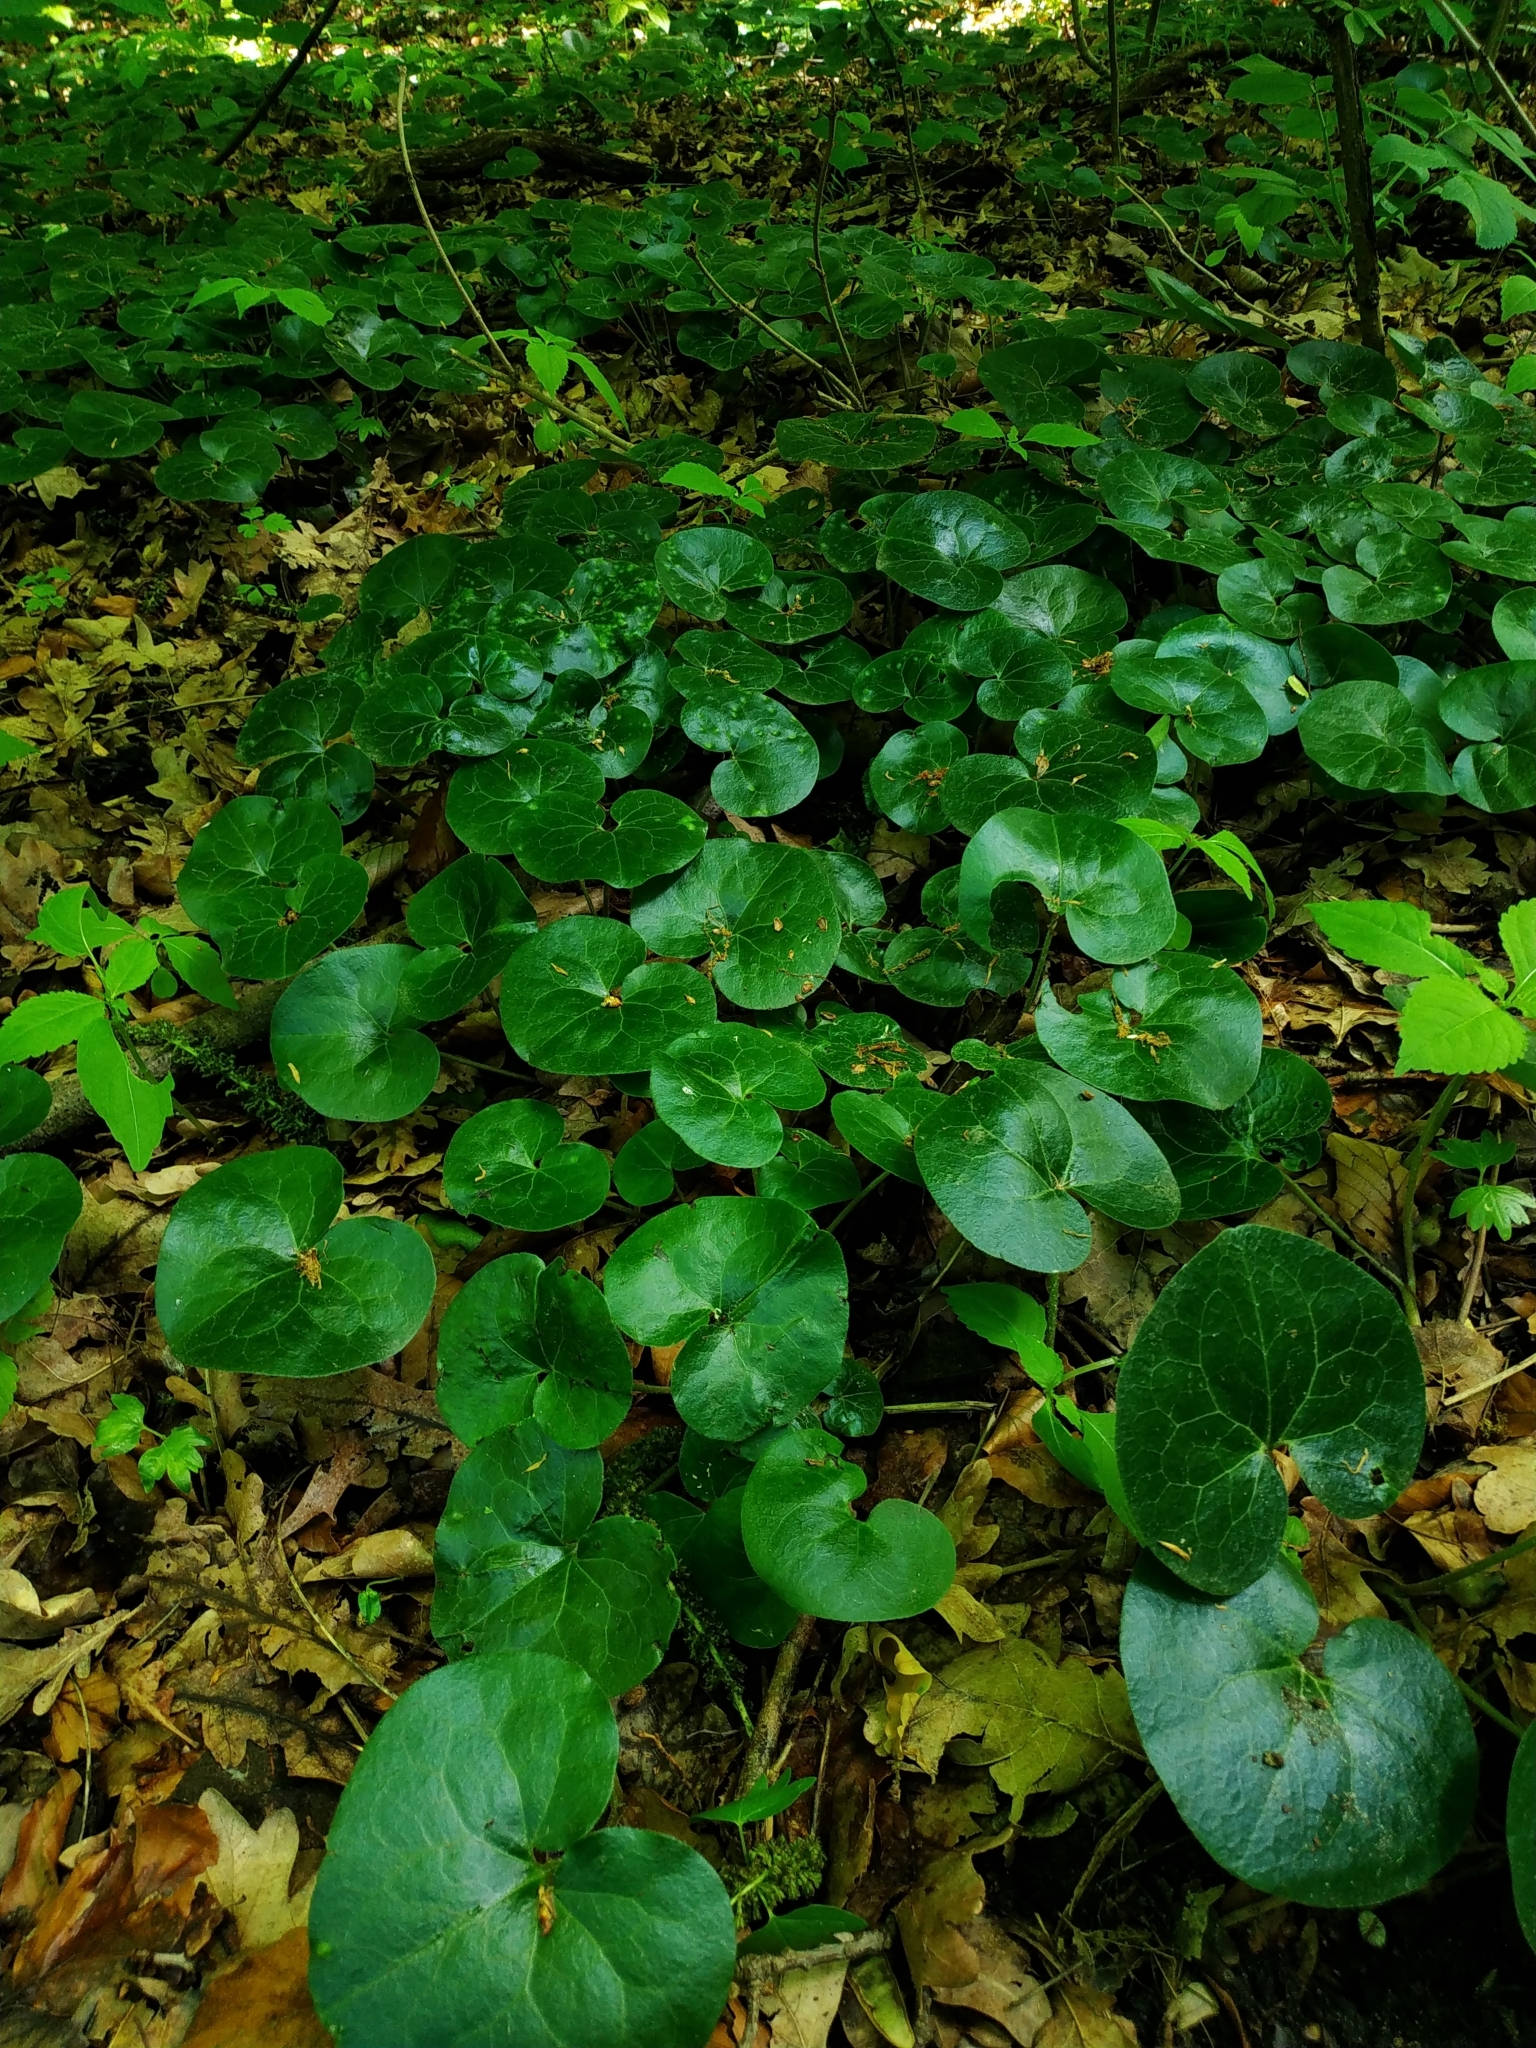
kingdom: Plantae
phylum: Tracheophyta
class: Magnoliopsida
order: Piperales
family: Aristolochiaceae
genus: Asarum
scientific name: Asarum europaeum
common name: Asarabacca
